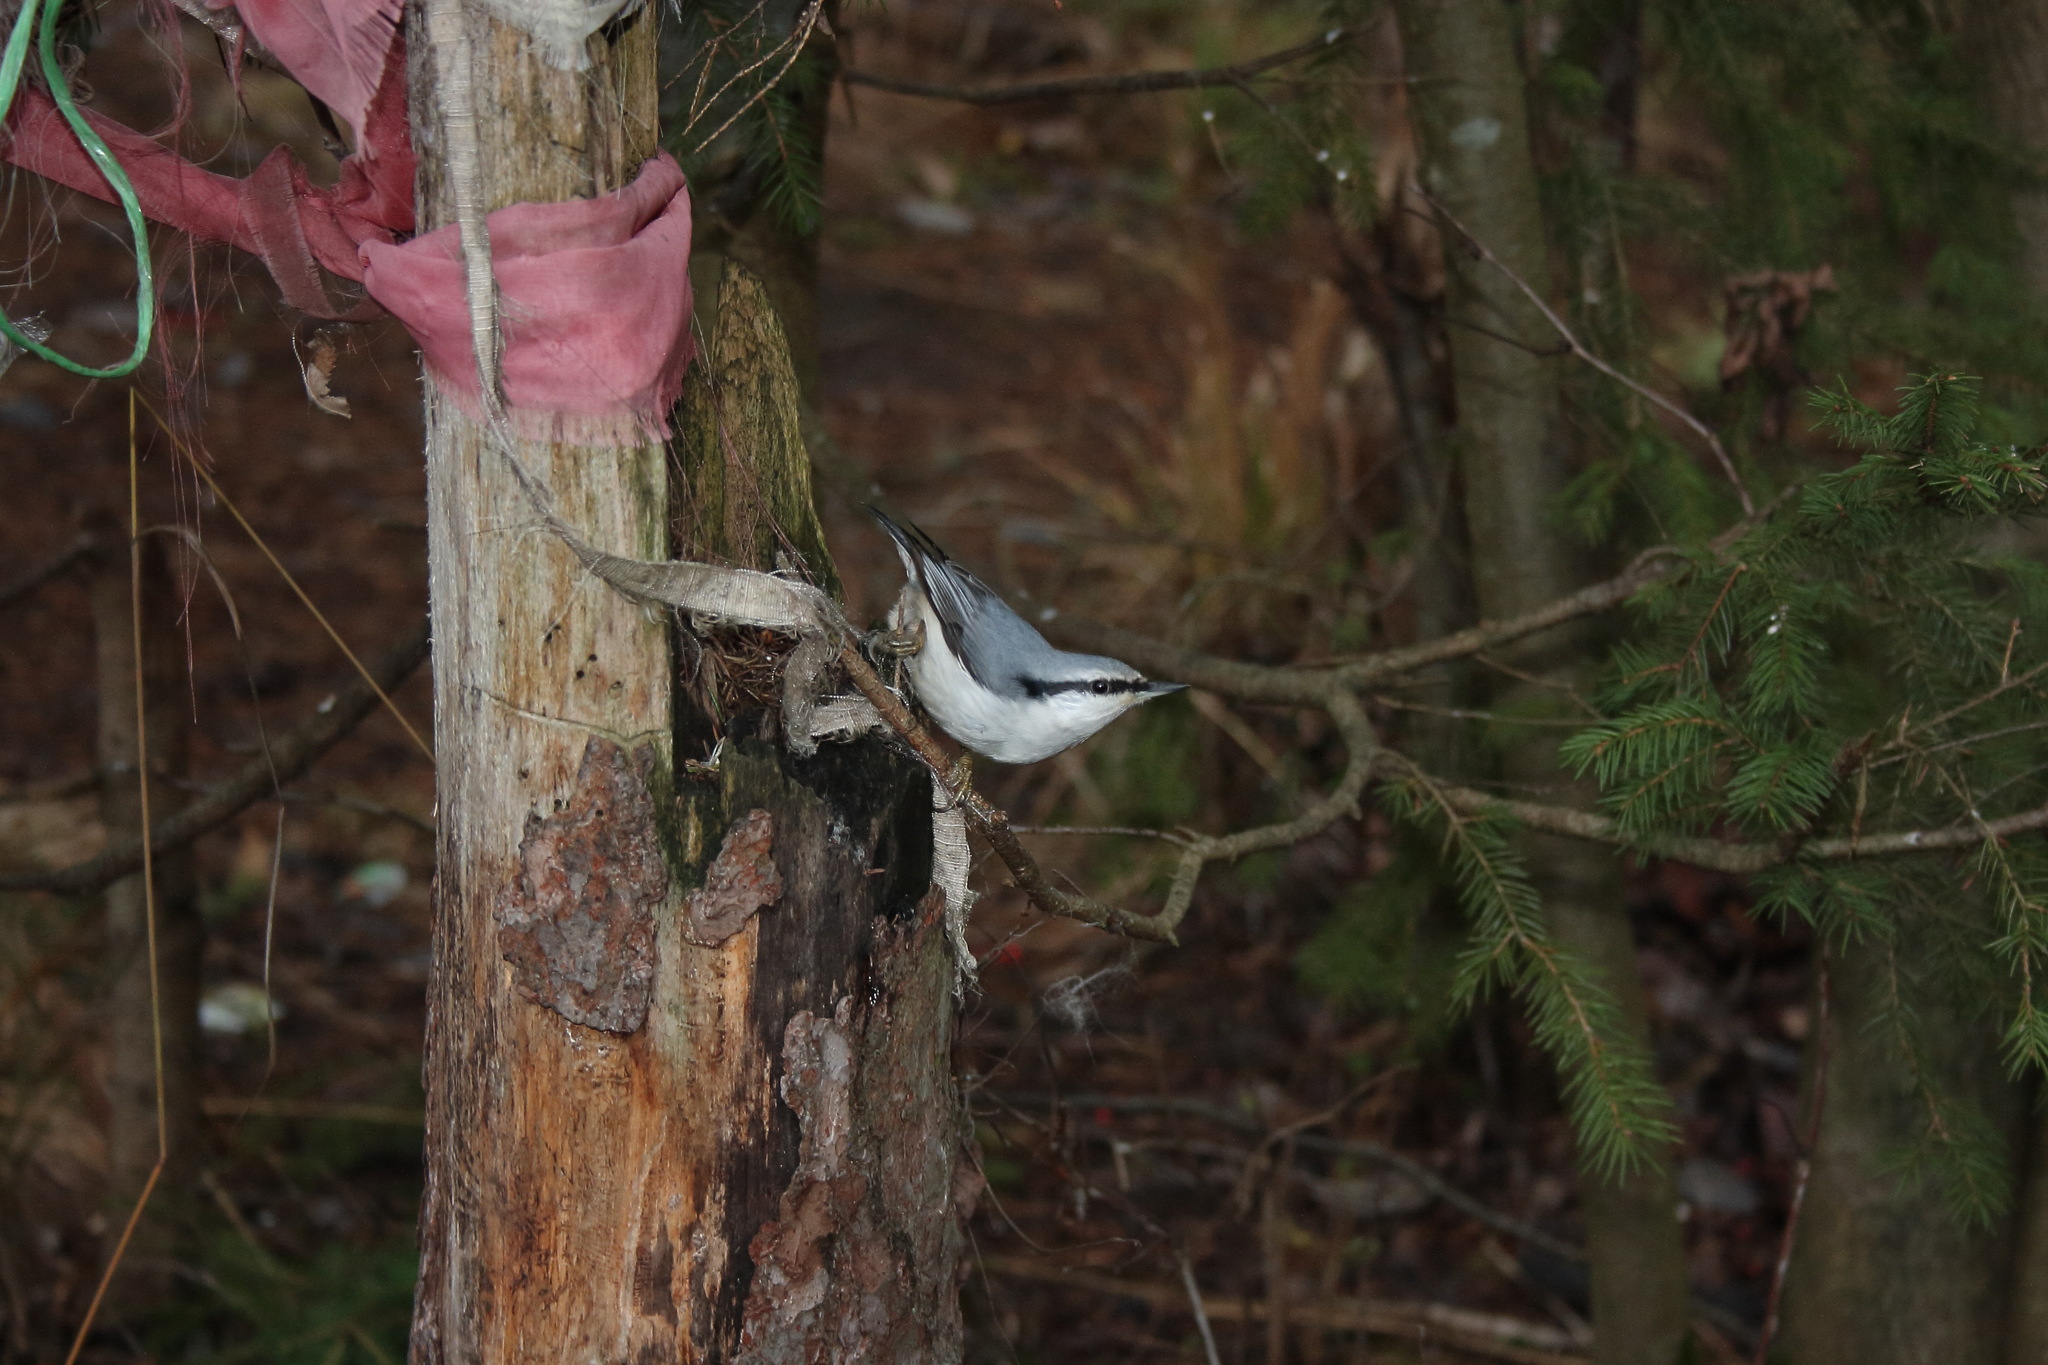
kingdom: Animalia
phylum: Chordata
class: Aves
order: Passeriformes
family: Sittidae
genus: Sitta
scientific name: Sitta europaea
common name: Eurasian nuthatch
